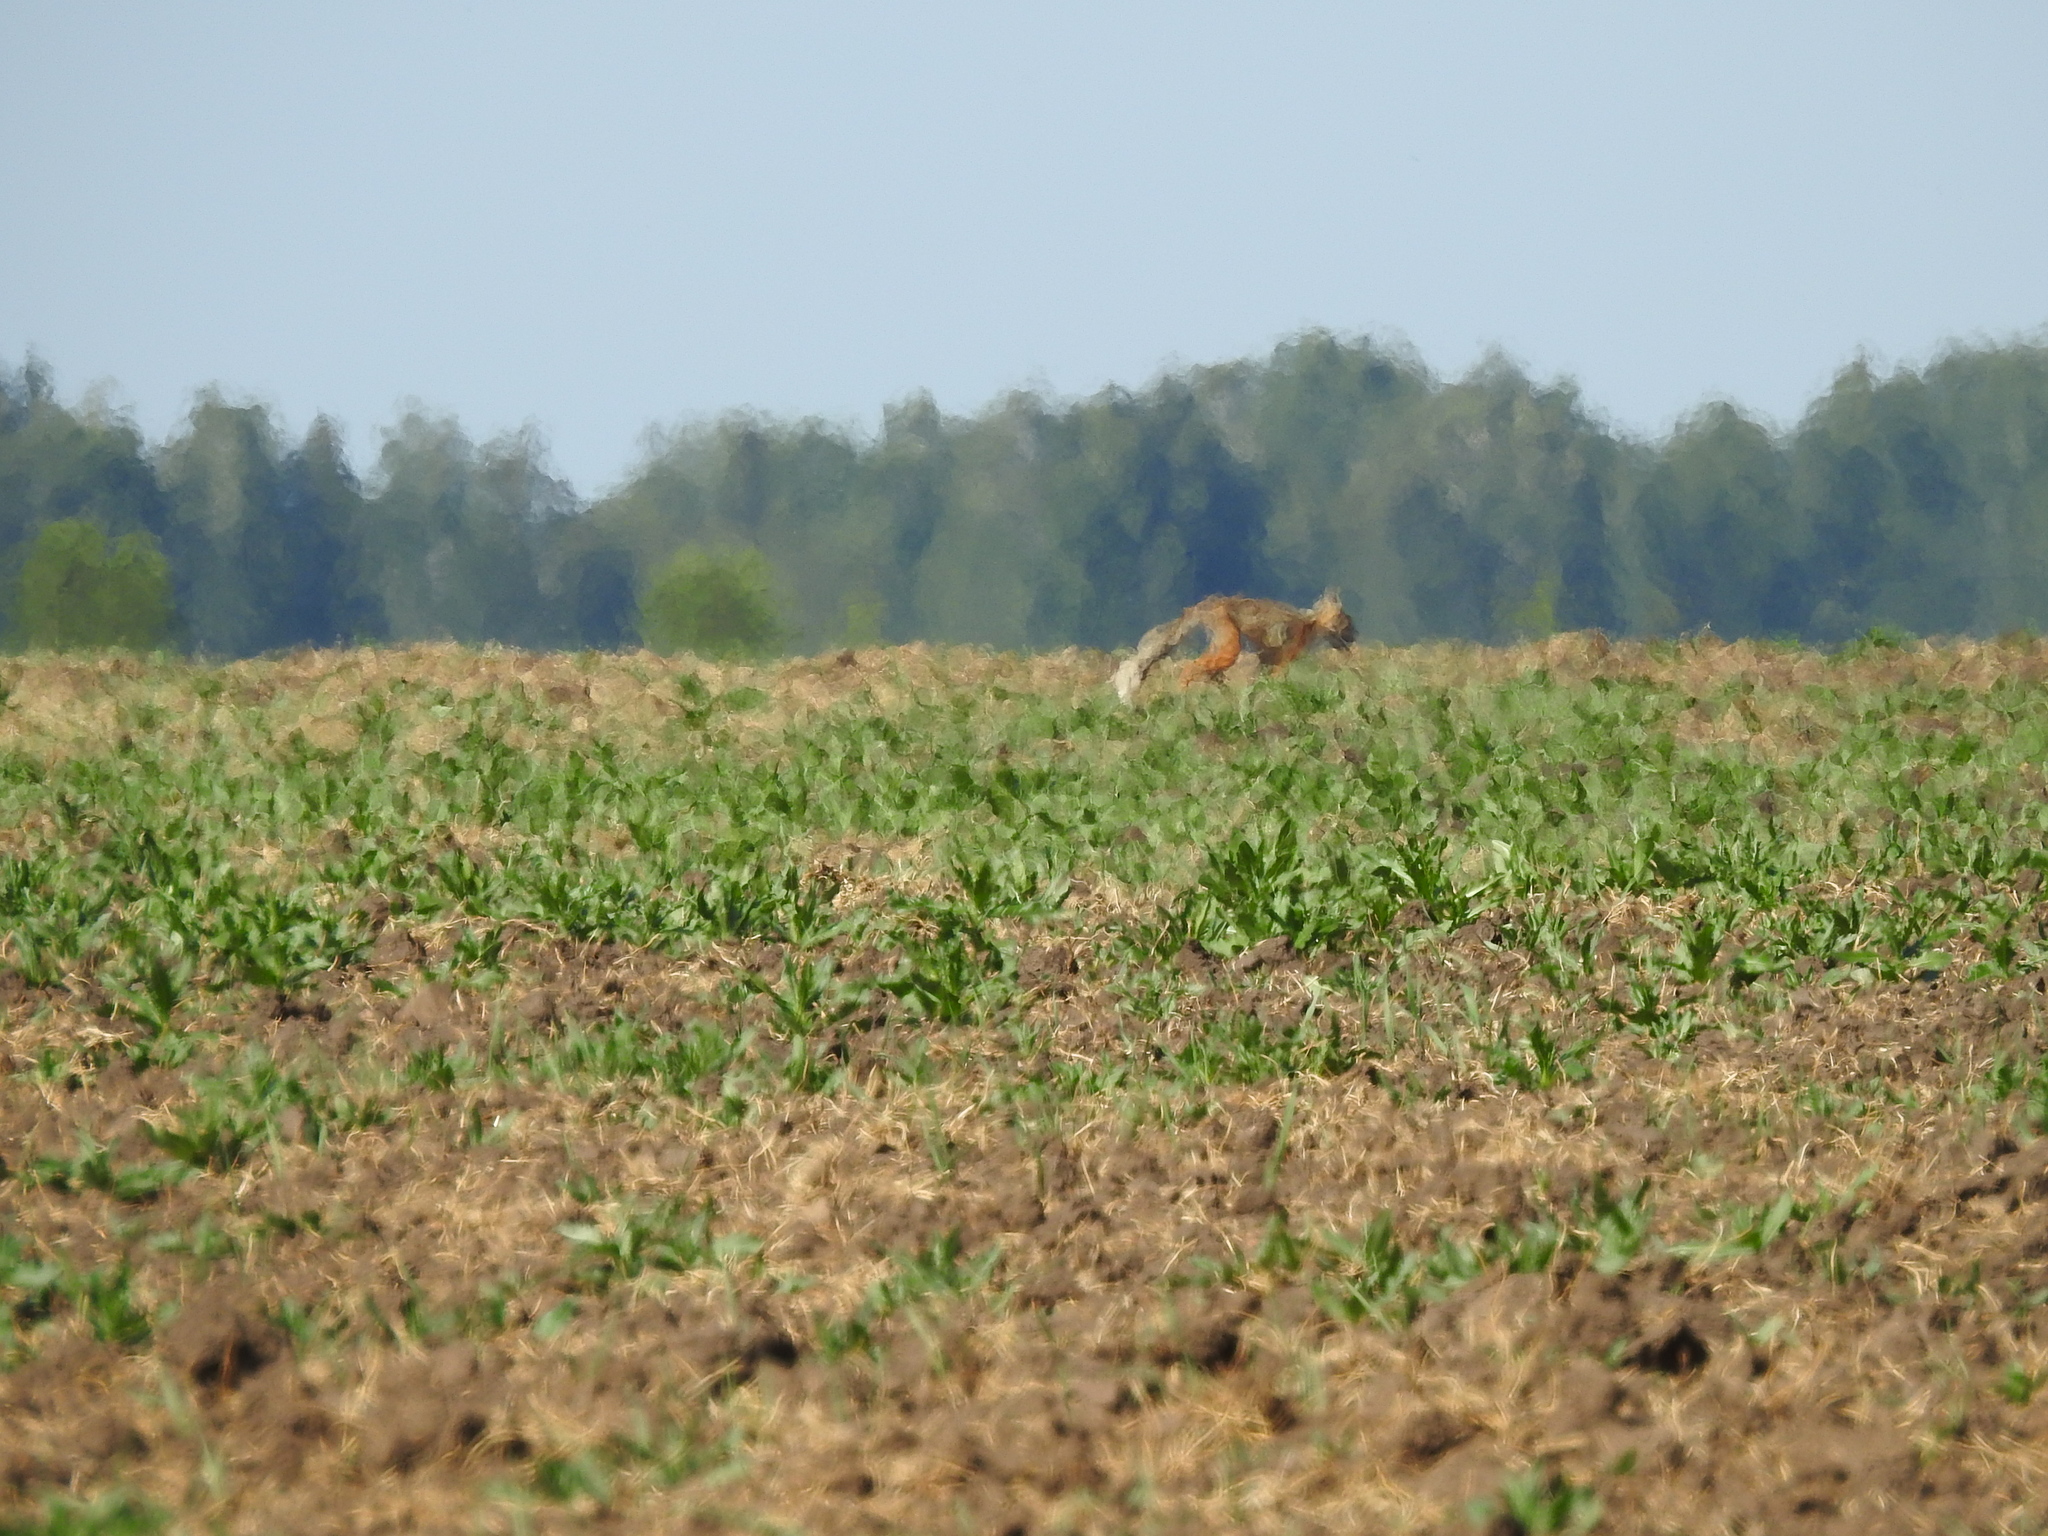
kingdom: Animalia
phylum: Chordata
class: Mammalia
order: Carnivora
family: Canidae
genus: Vulpes
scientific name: Vulpes vulpes
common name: Red fox
